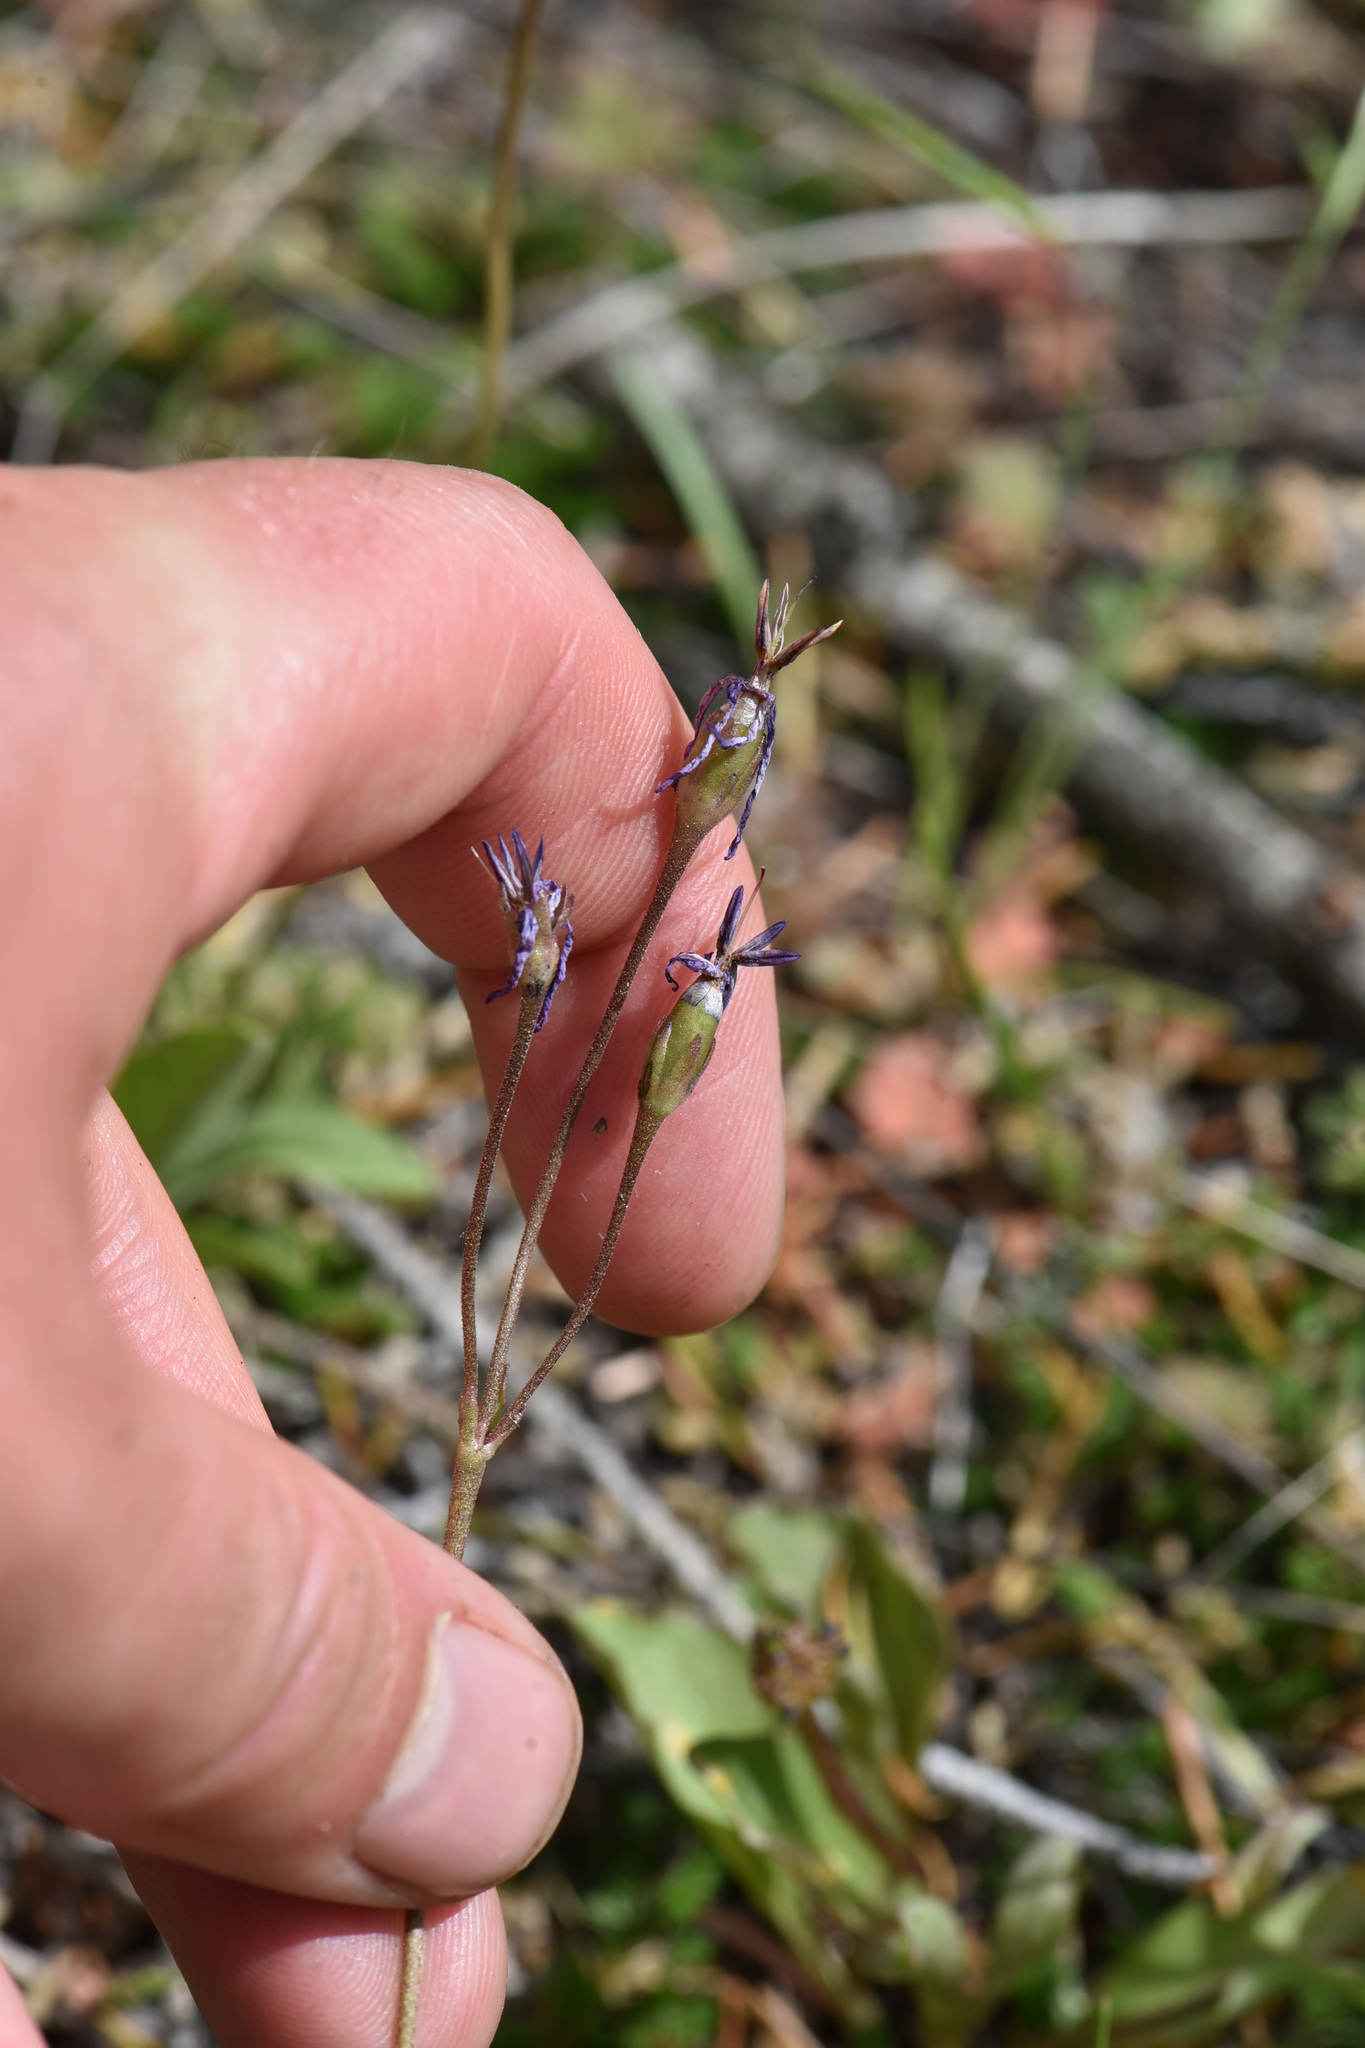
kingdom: Plantae
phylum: Tracheophyta
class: Magnoliopsida
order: Ericales
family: Primulaceae
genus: Dodecatheon
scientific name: Dodecatheon pulchellum
